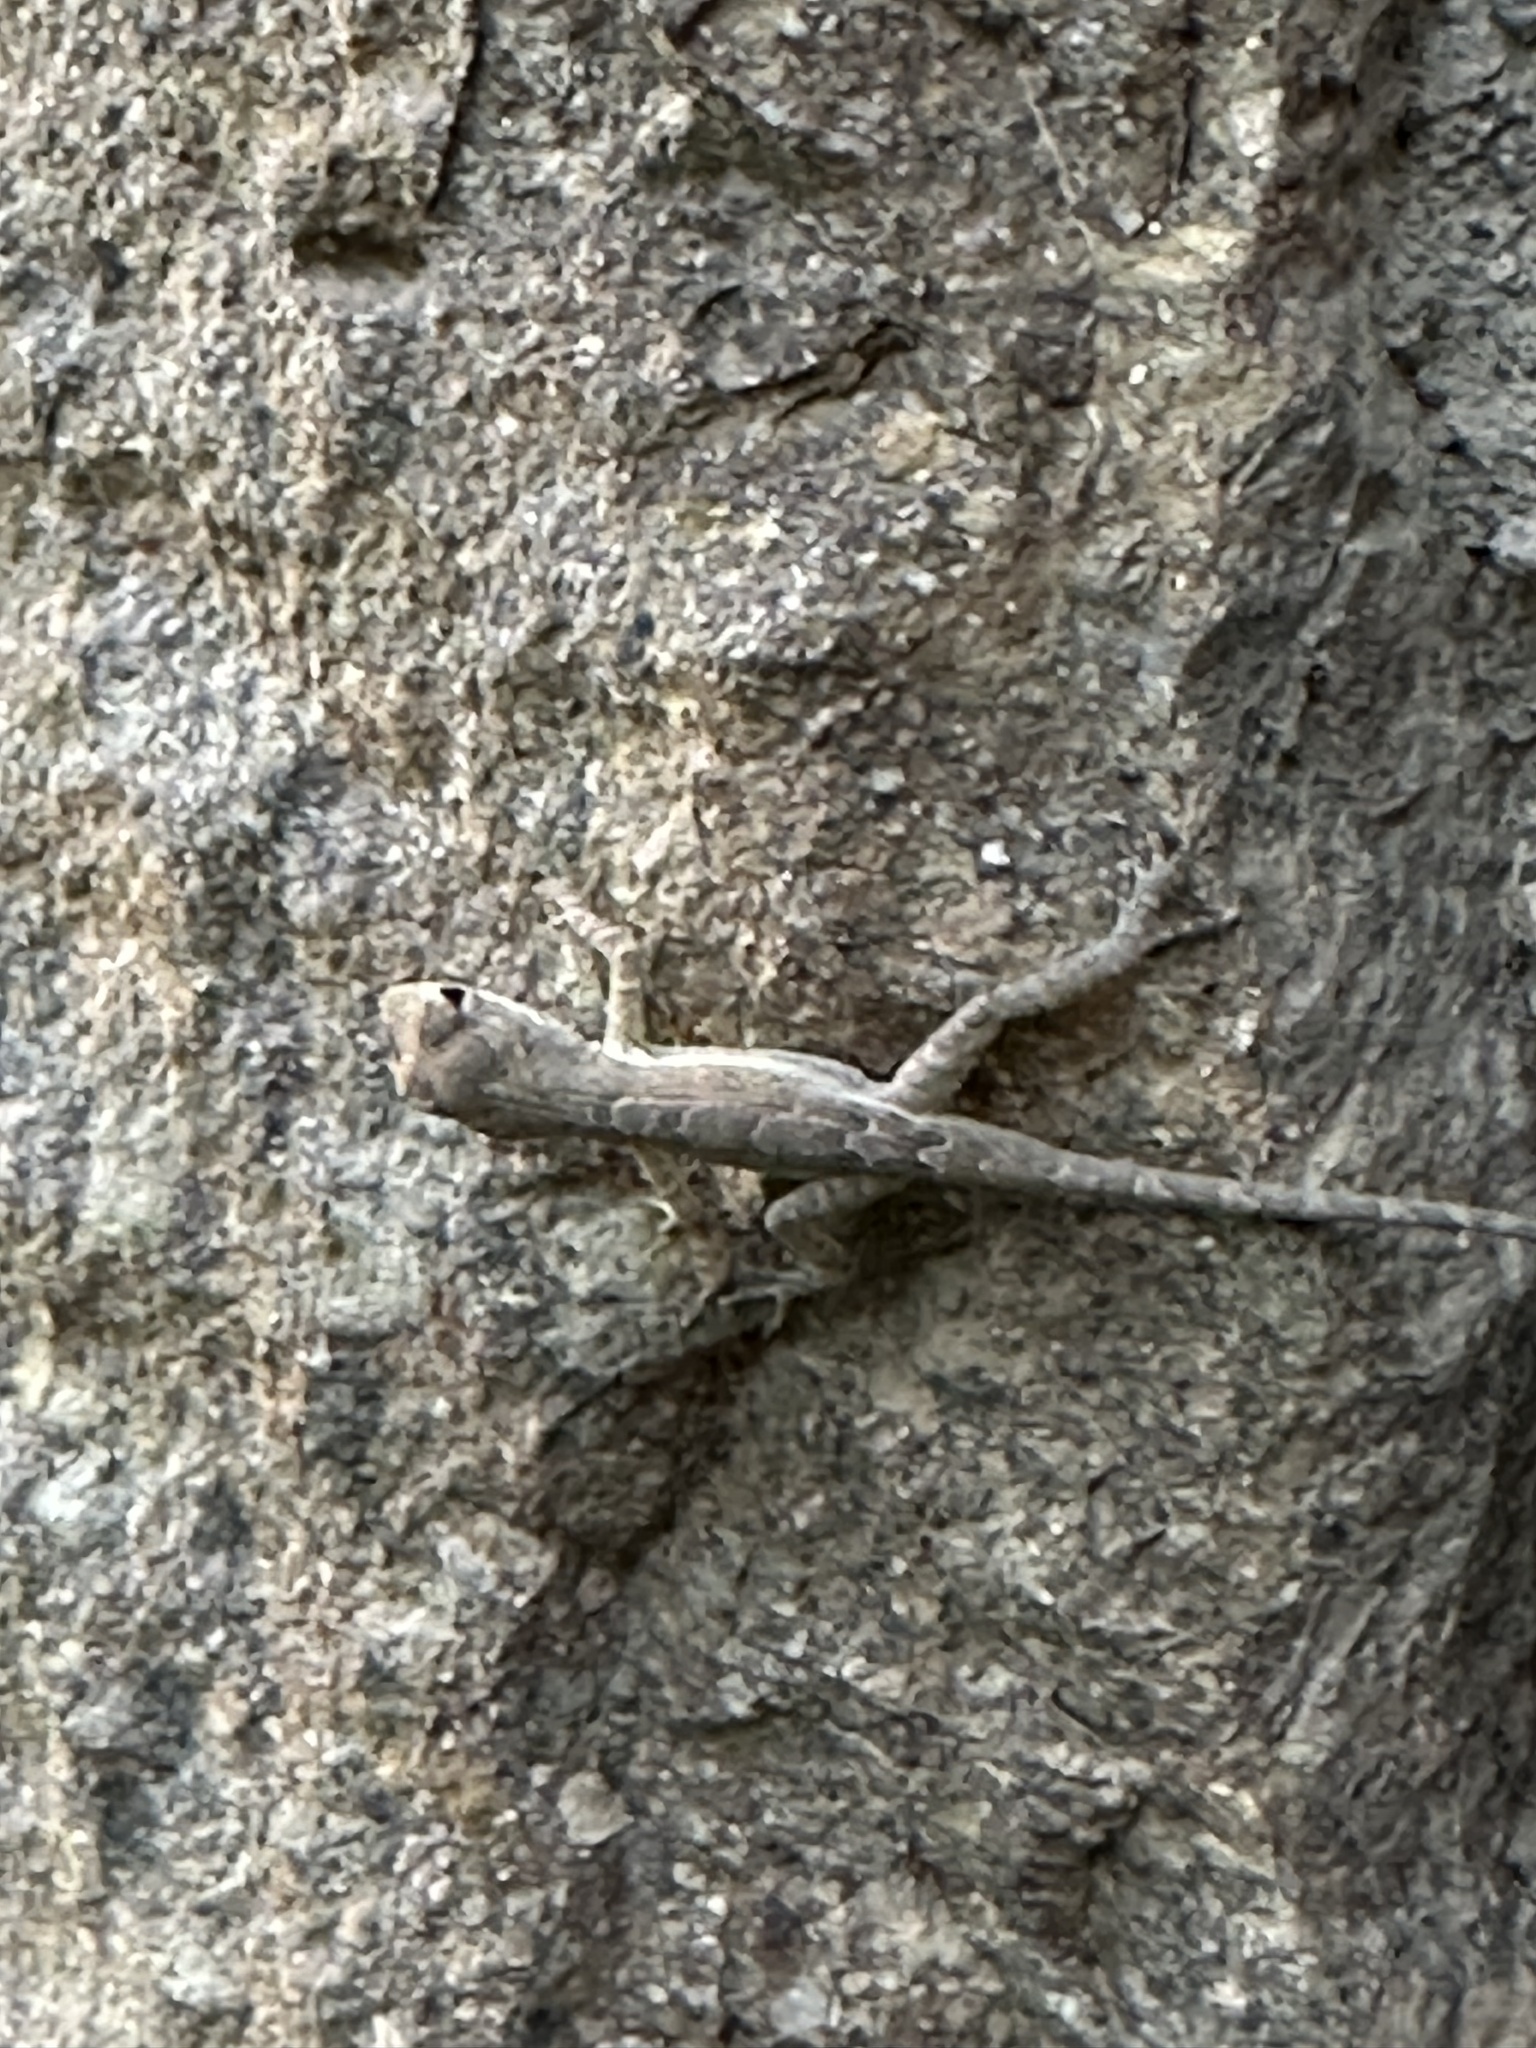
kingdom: Animalia
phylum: Chordata
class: Squamata
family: Dactyloidae
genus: Anolis
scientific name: Anolis gingivinus
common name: Anguilla anole
